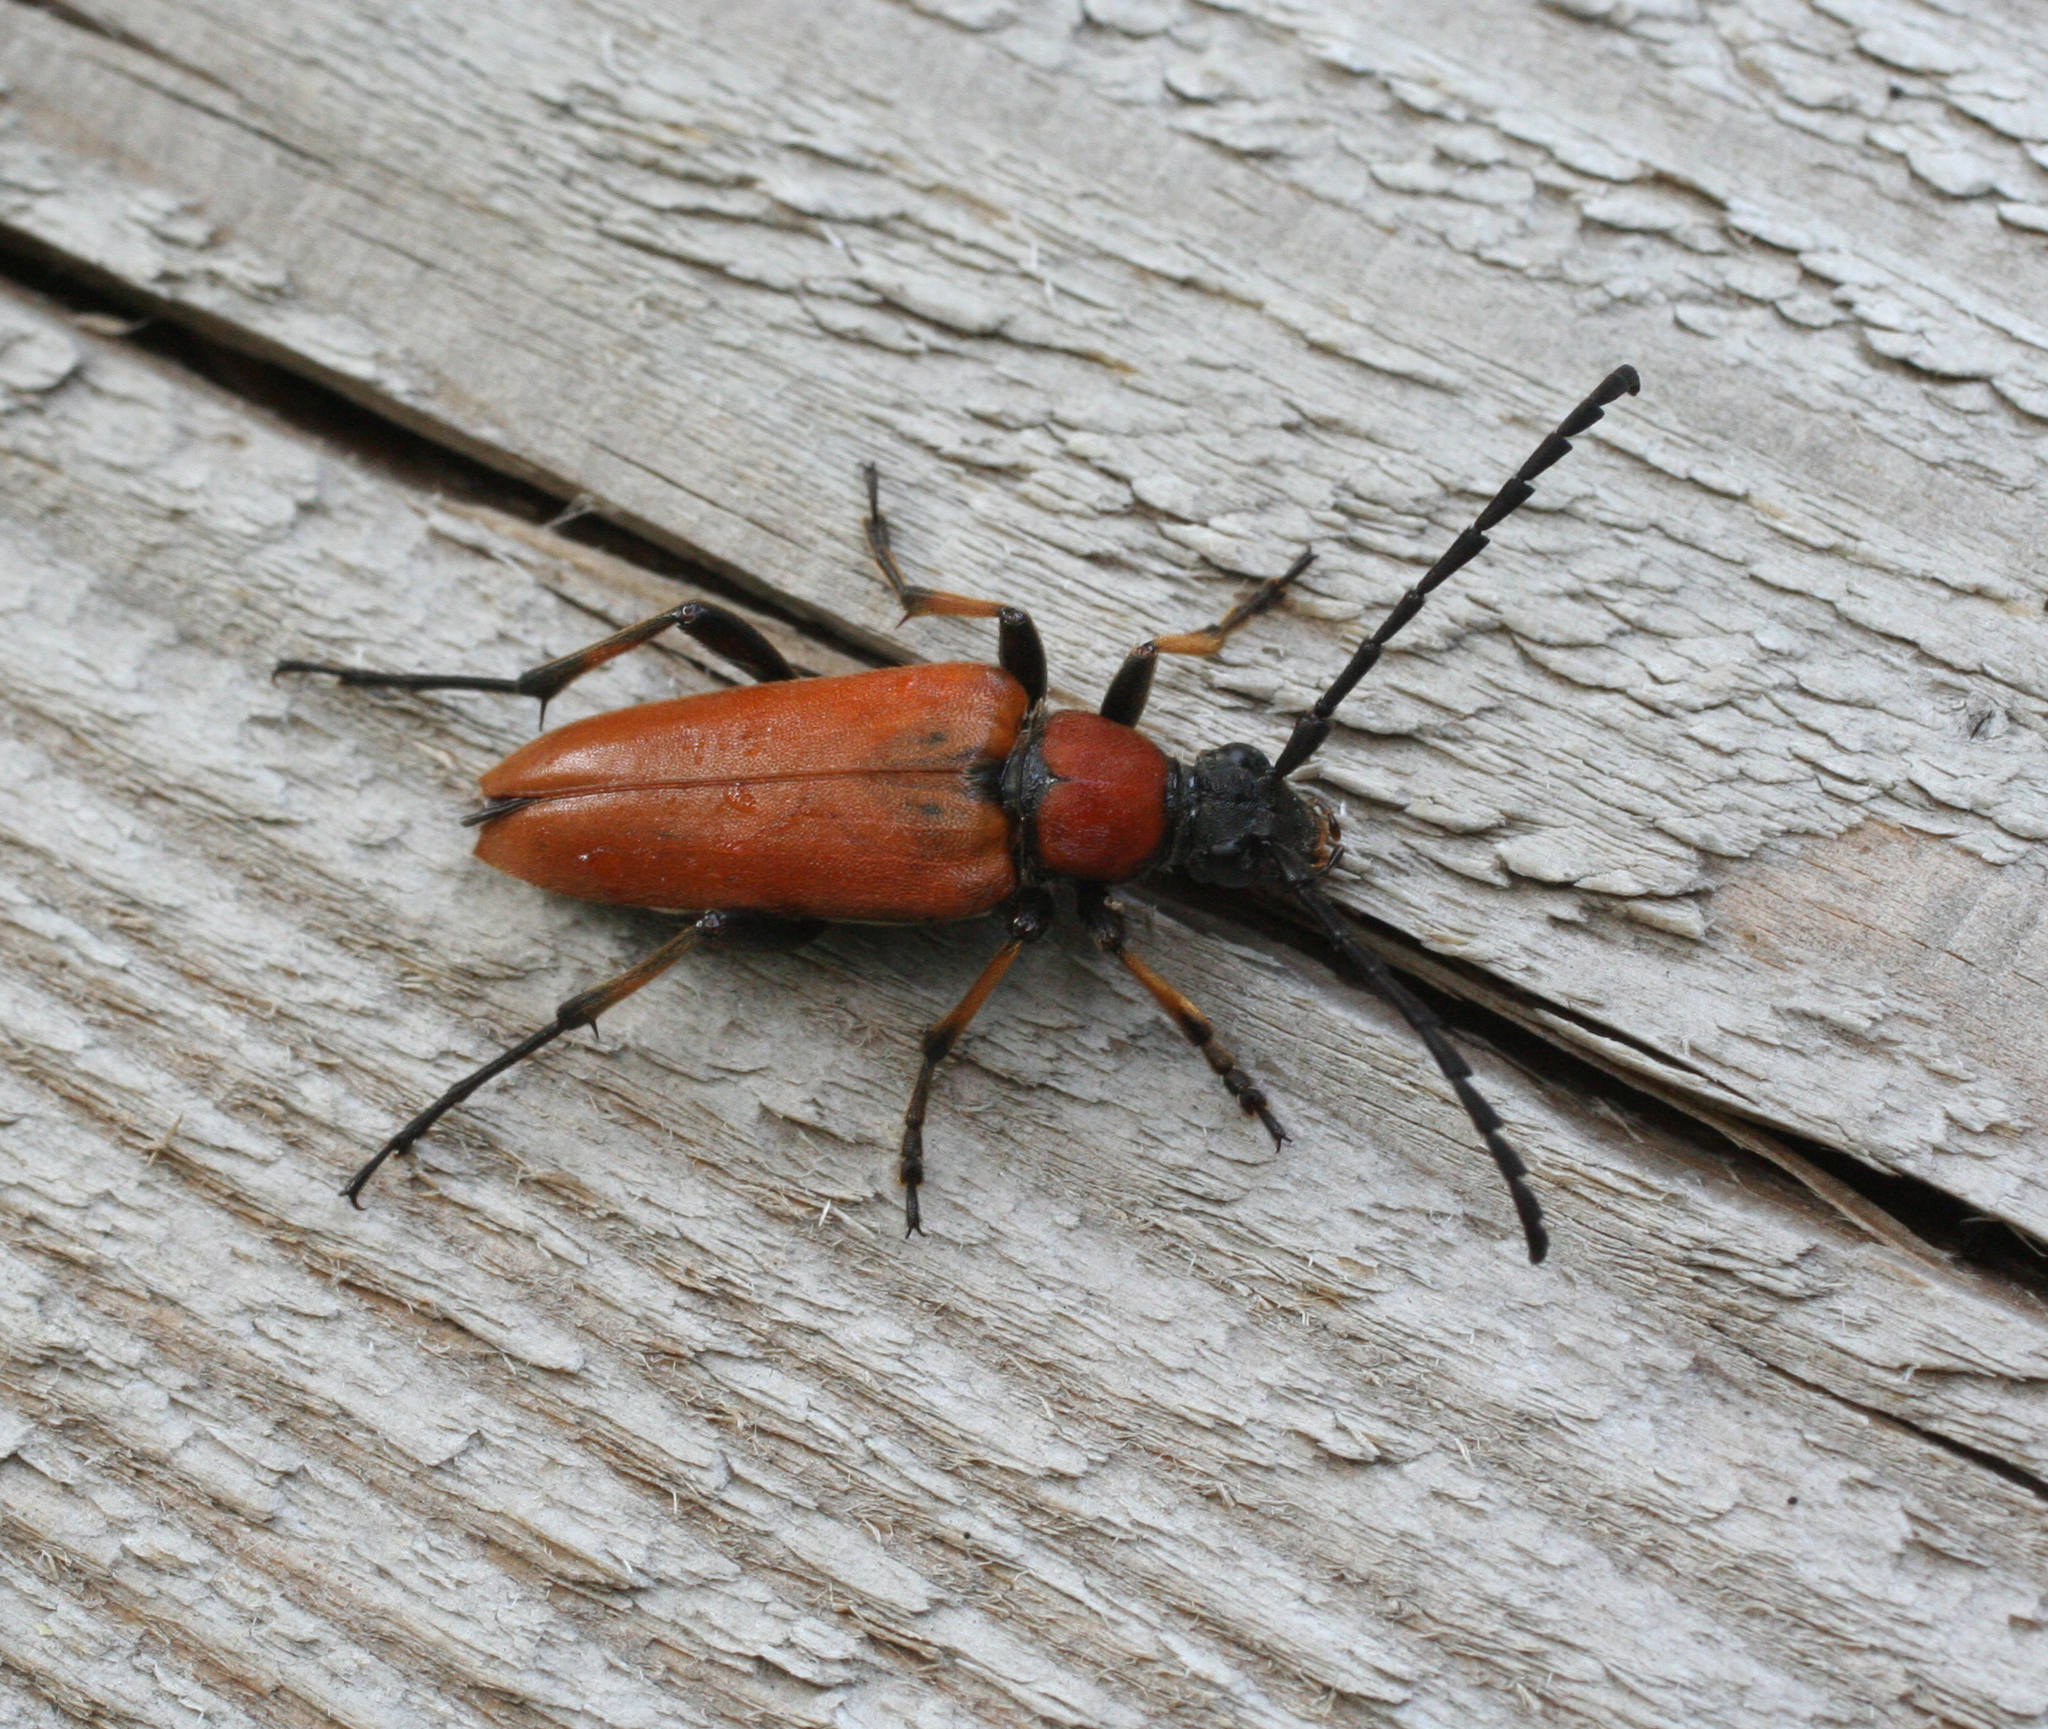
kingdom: Animalia
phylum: Arthropoda
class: Insecta
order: Coleoptera
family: Cerambycidae
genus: Stictoleptura
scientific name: Stictoleptura dichroa
